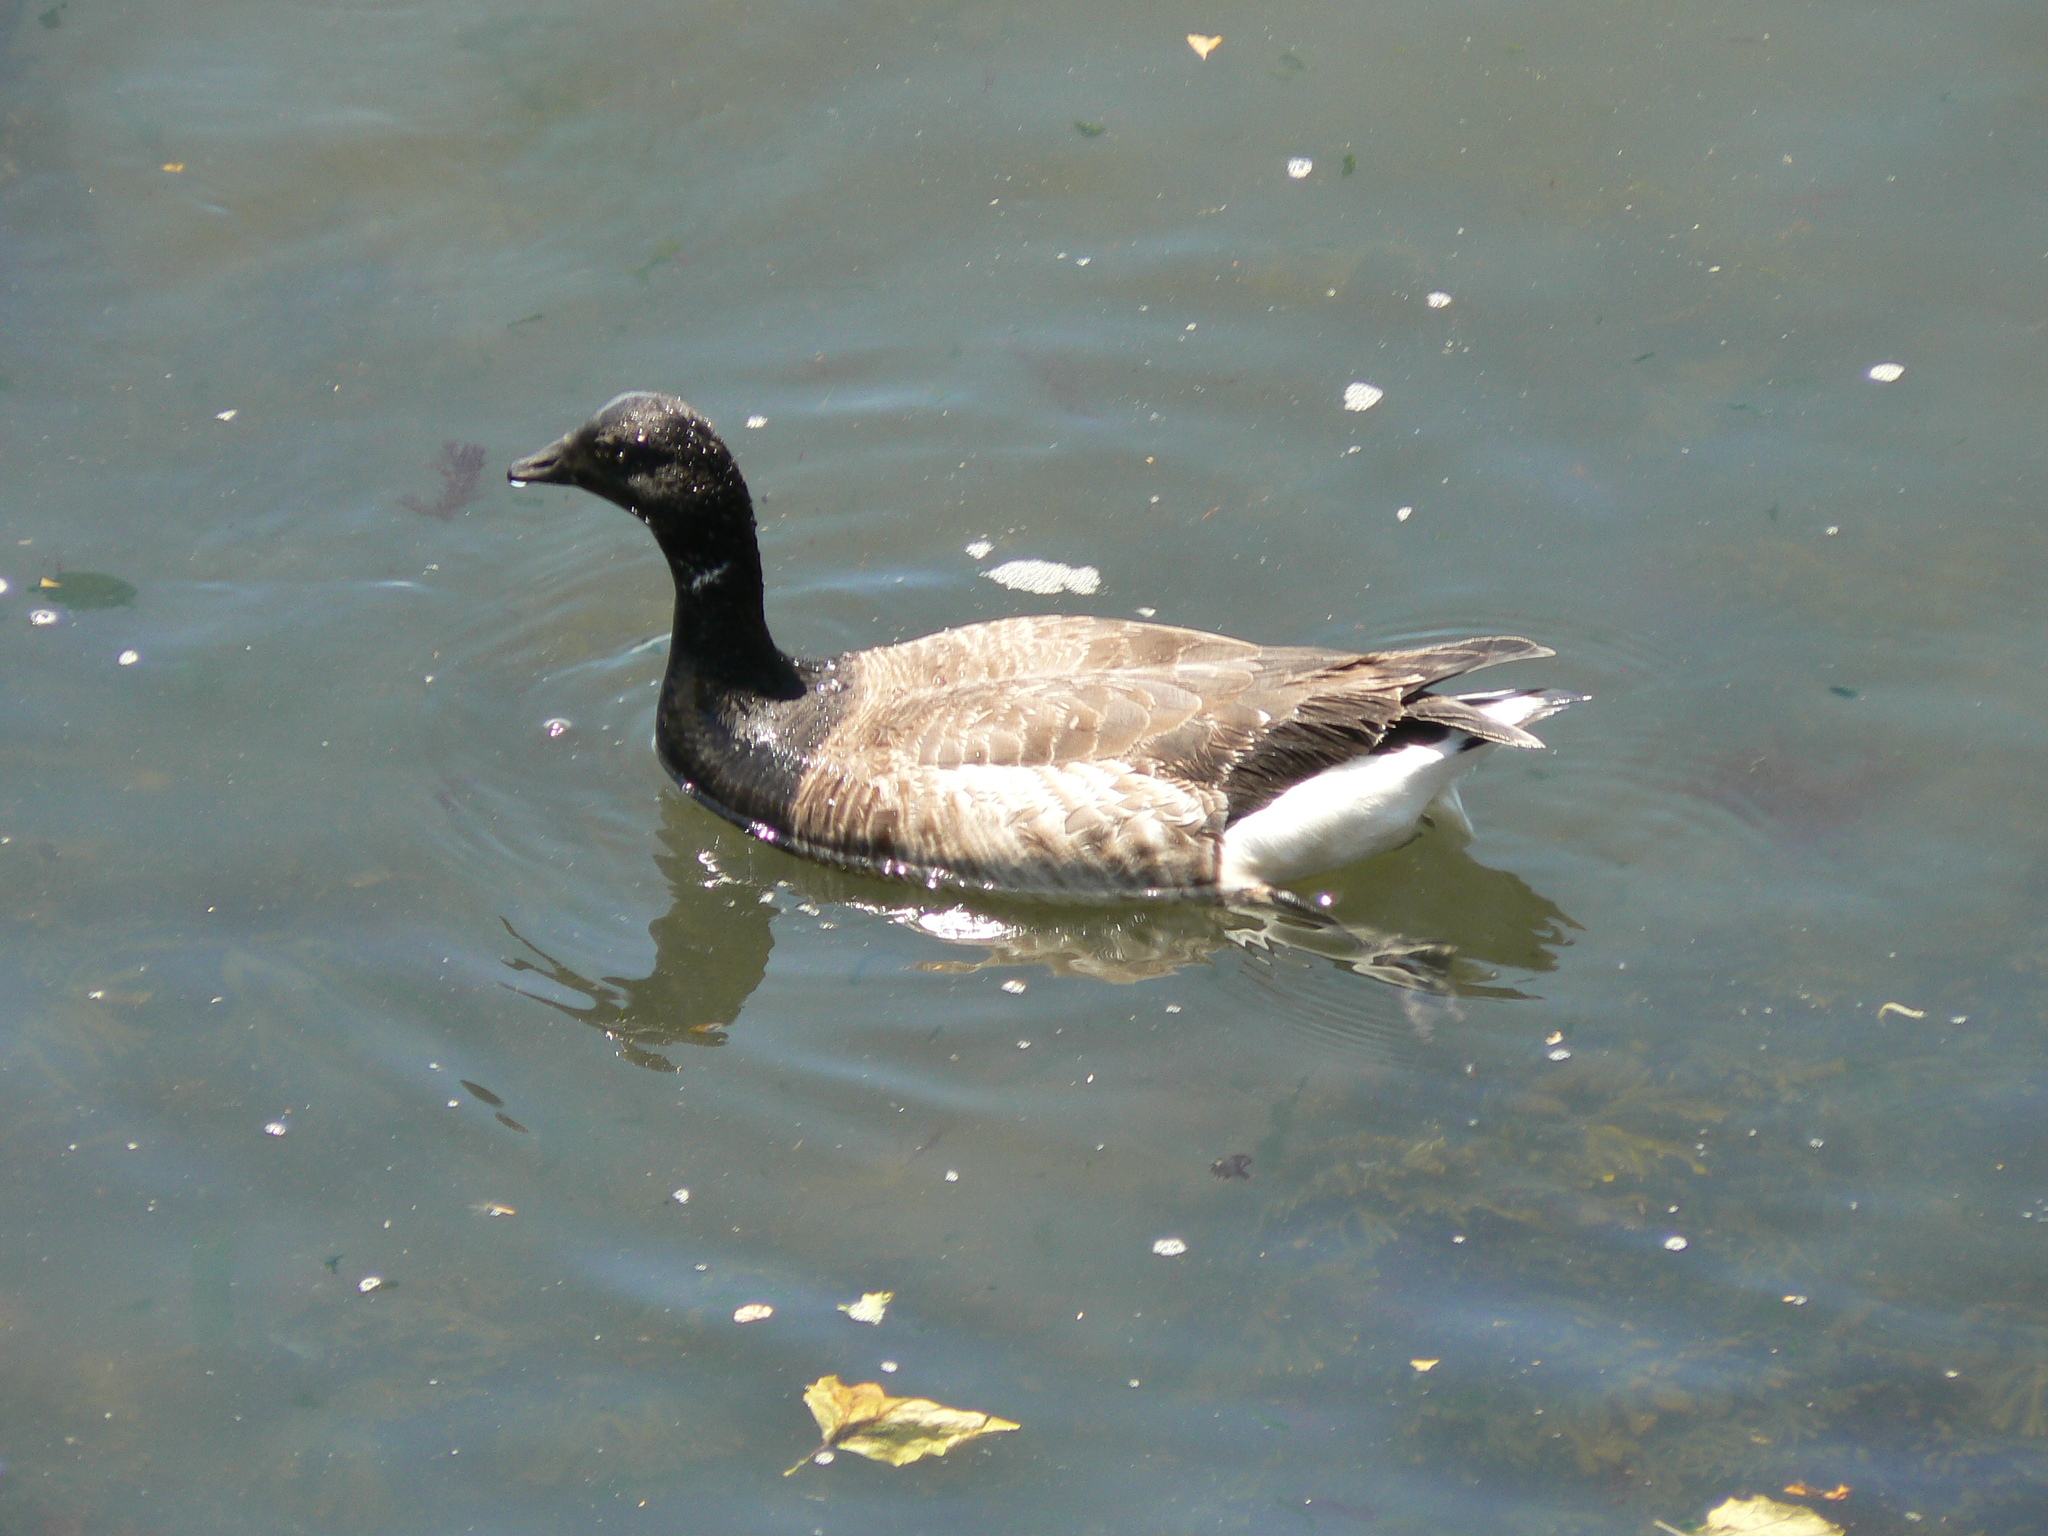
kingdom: Animalia
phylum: Chordata
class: Aves
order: Anseriformes
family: Anatidae
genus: Branta
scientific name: Branta bernicla
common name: Brant goose
